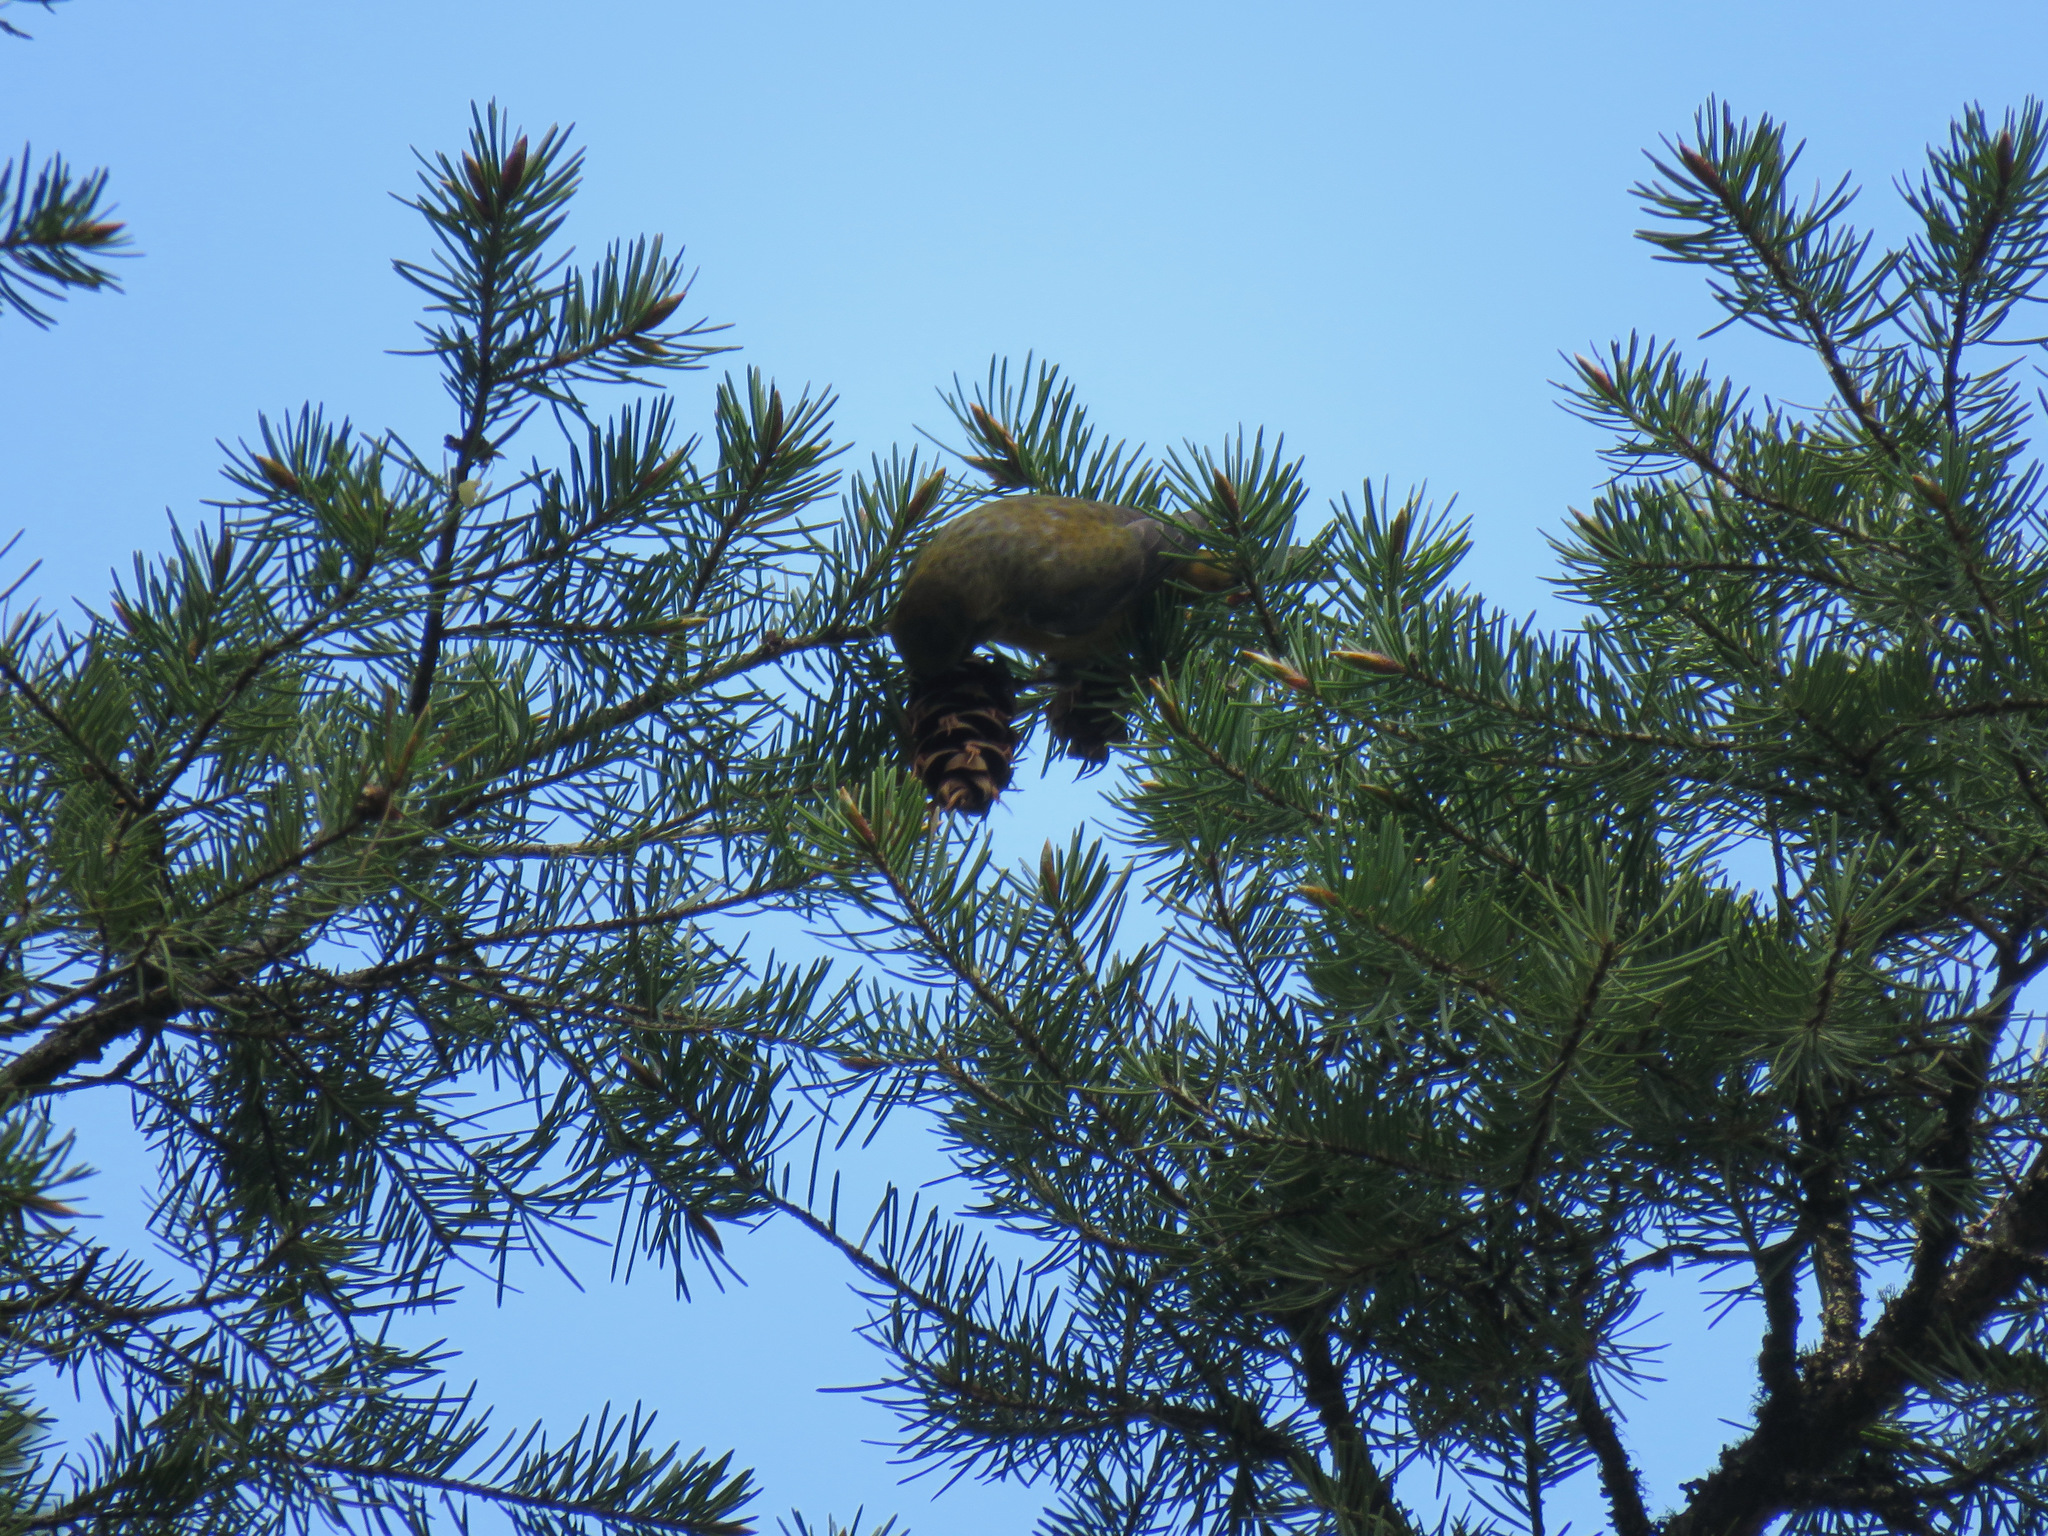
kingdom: Animalia
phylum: Chordata
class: Aves
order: Passeriformes
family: Fringillidae
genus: Loxia
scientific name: Loxia curvirostra
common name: Red crossbill
